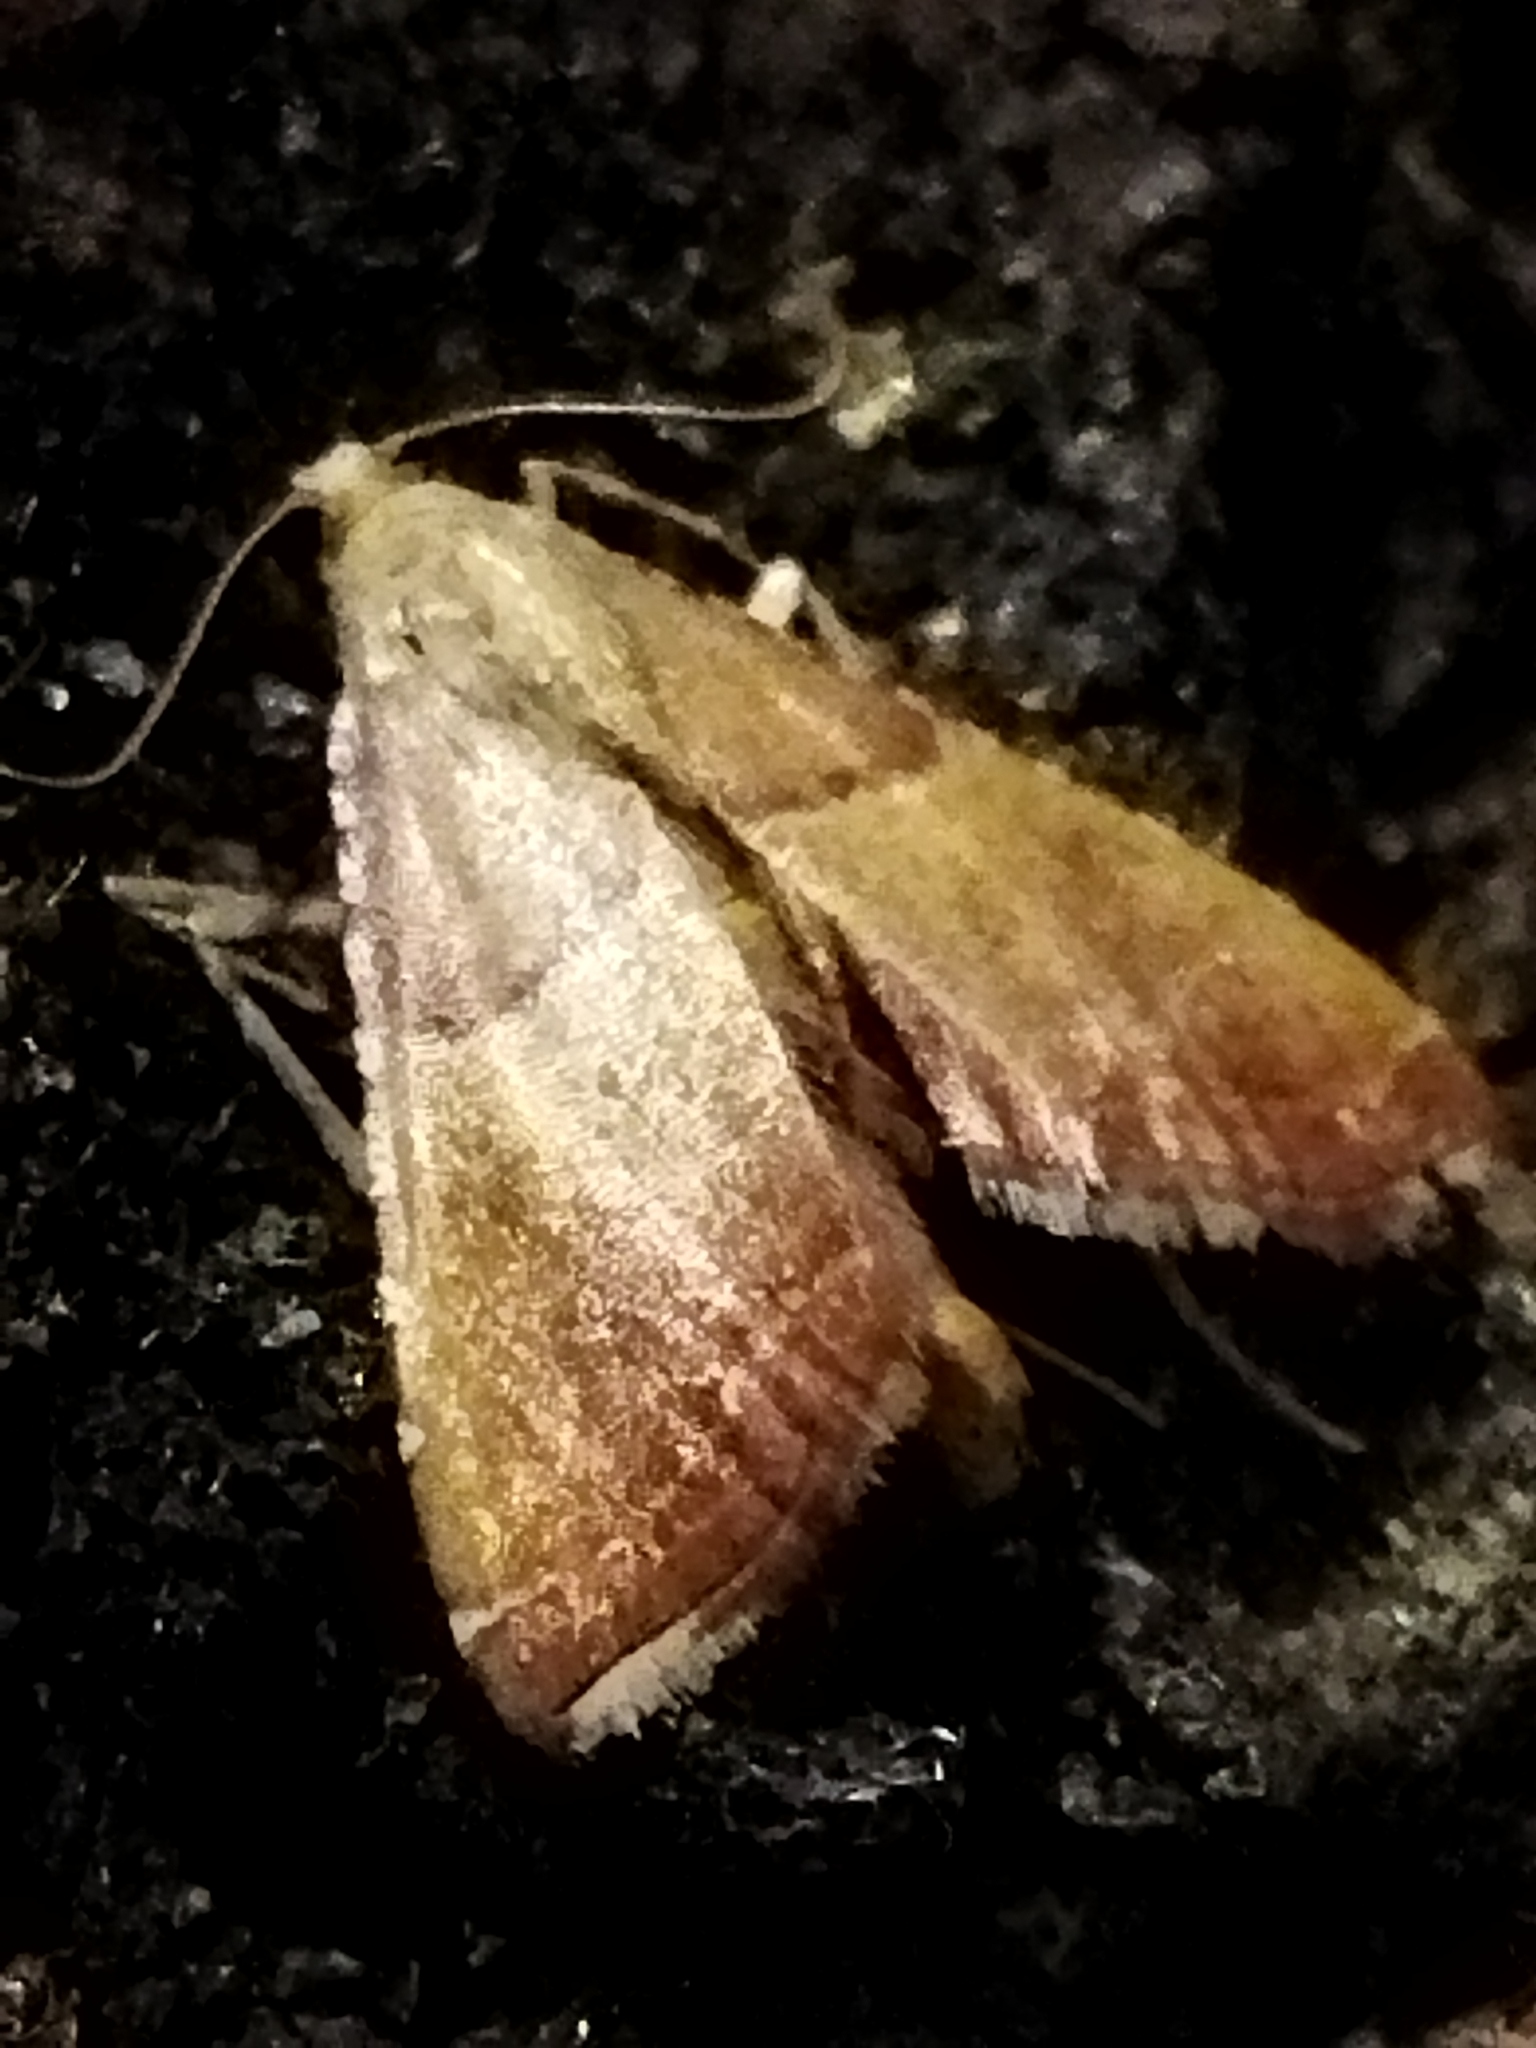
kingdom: Animalia
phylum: Arthropoda
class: Insecta
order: Lepidoptera
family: Pyralidae
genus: Endotricha
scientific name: Endotricha flammealis
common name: Rosy tabby
